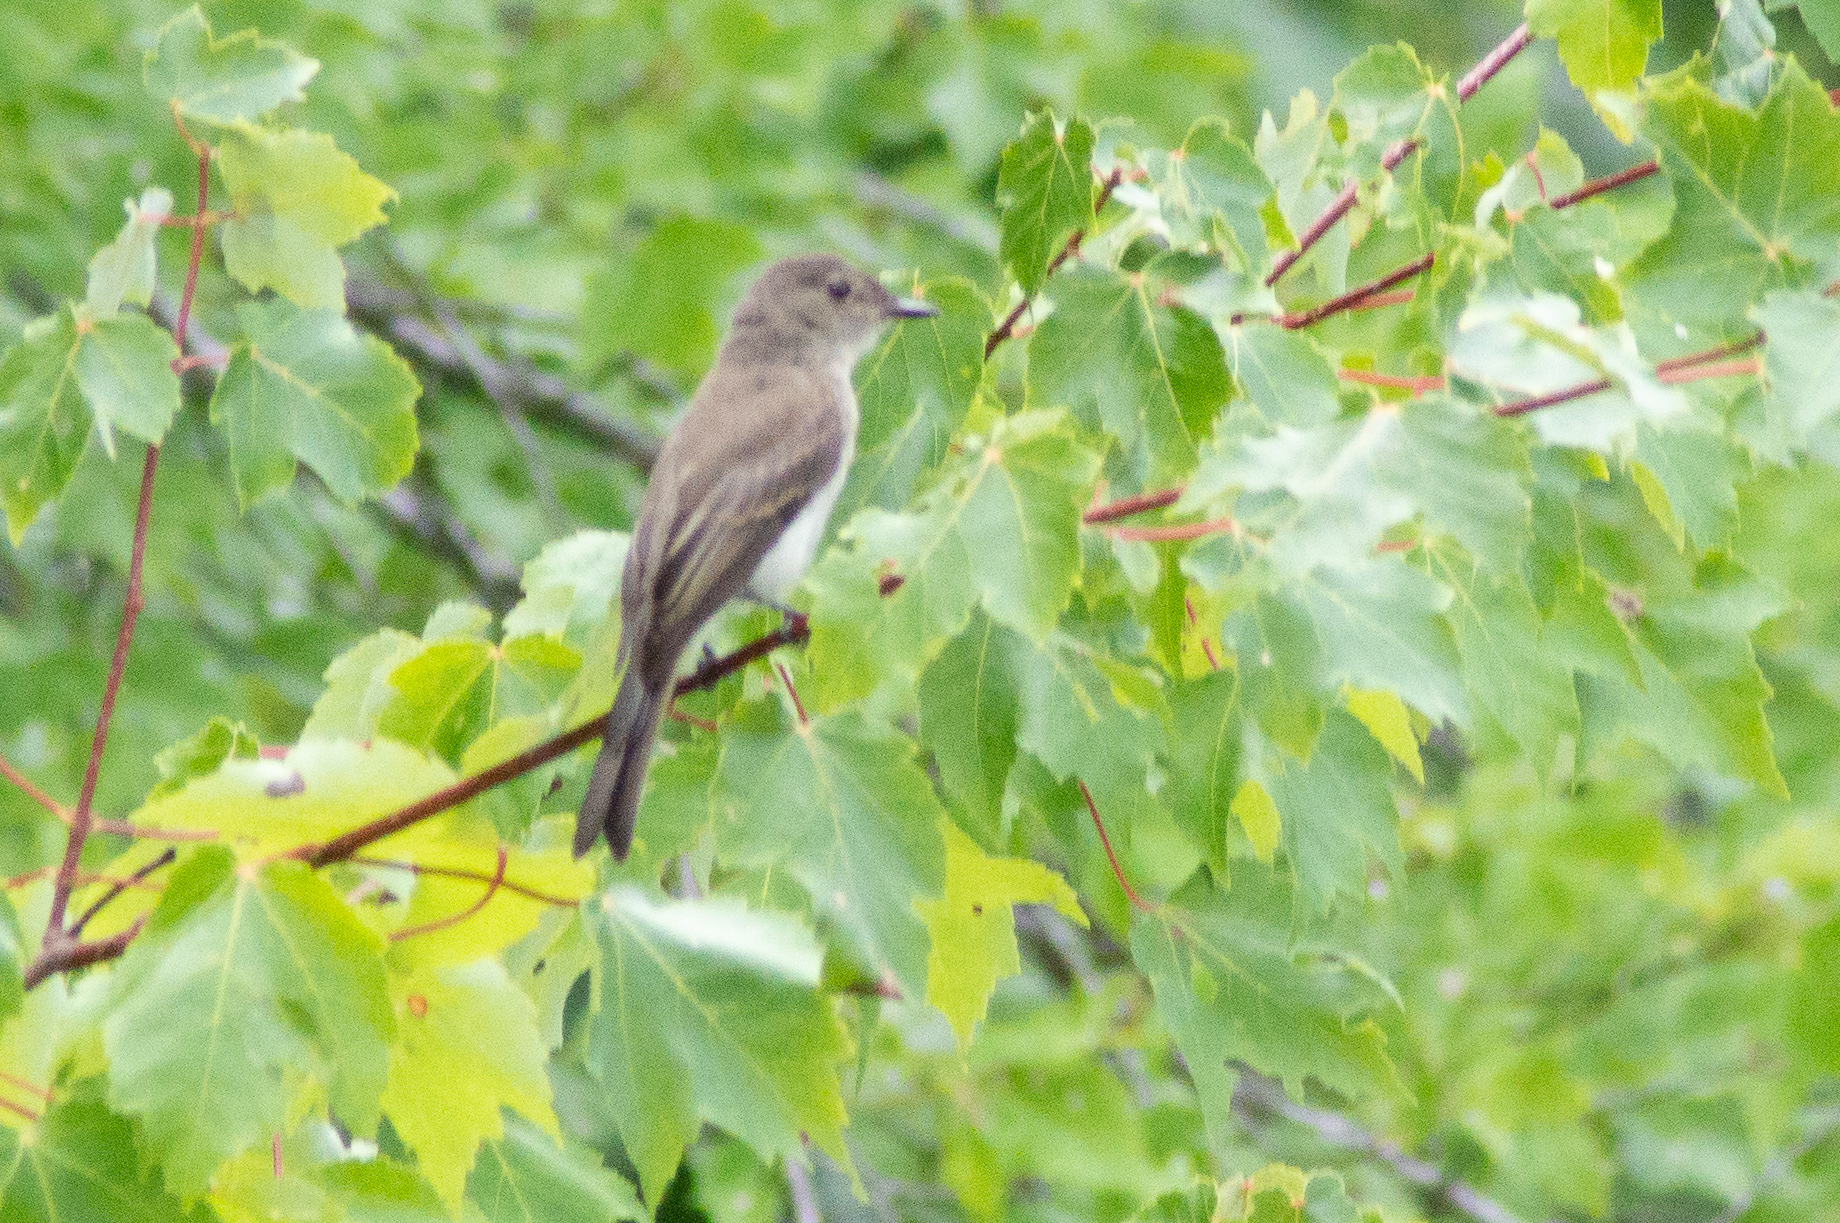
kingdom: Animalia
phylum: Chordata
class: Aves
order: Passeriformes
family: Tyrannidae
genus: Sayornis
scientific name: Sayornis phoebe
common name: Eastern phoebe
